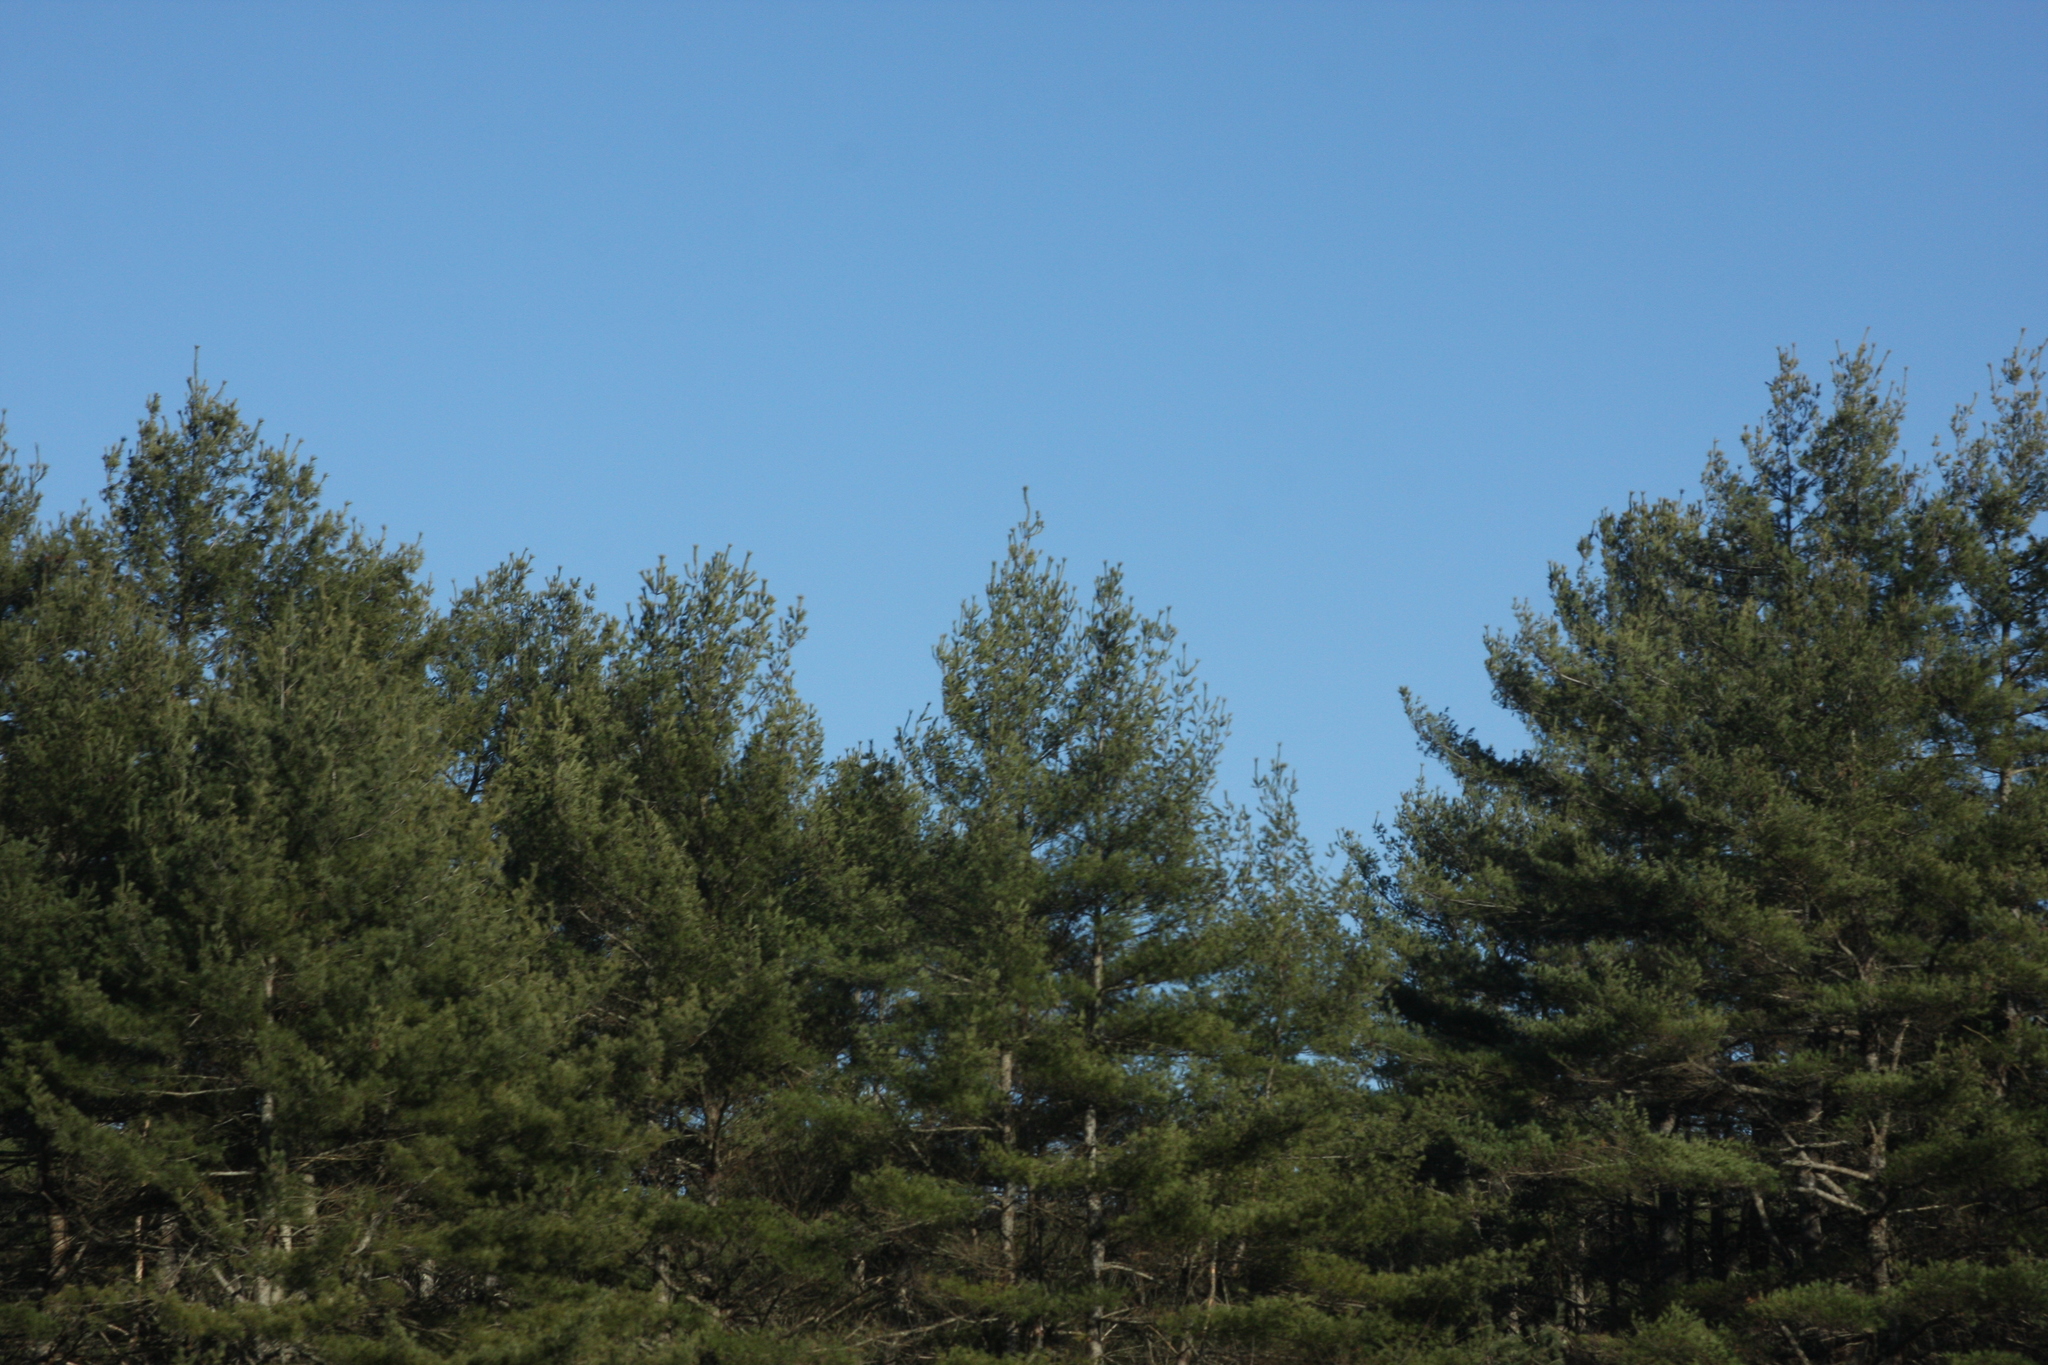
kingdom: Plantae
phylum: Tracheophyta
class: Pinopsida
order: Pinales
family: Pinaceae
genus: Pinus
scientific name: Pinus strobus
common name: Weymouth pine
